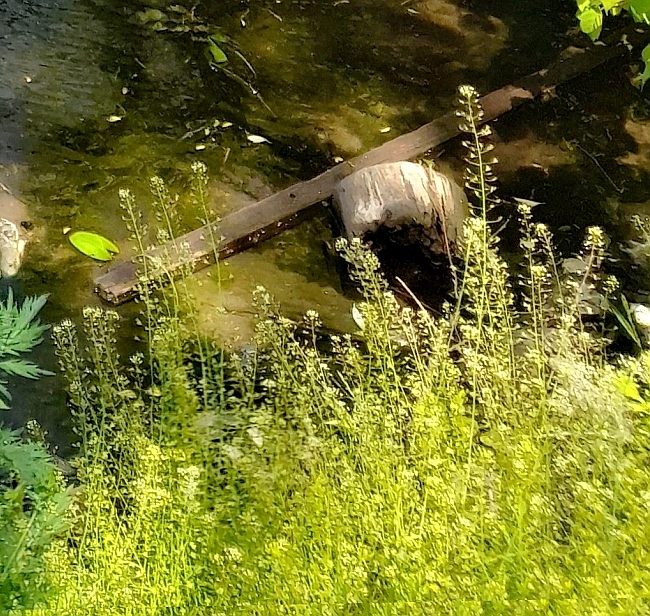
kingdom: Plantae
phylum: Tracheophyta
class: Magnoliopsida
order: Brassicales
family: Brassicaceae
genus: Capsella
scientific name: Capsella bursa-pastoris
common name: Shepherd's purse
